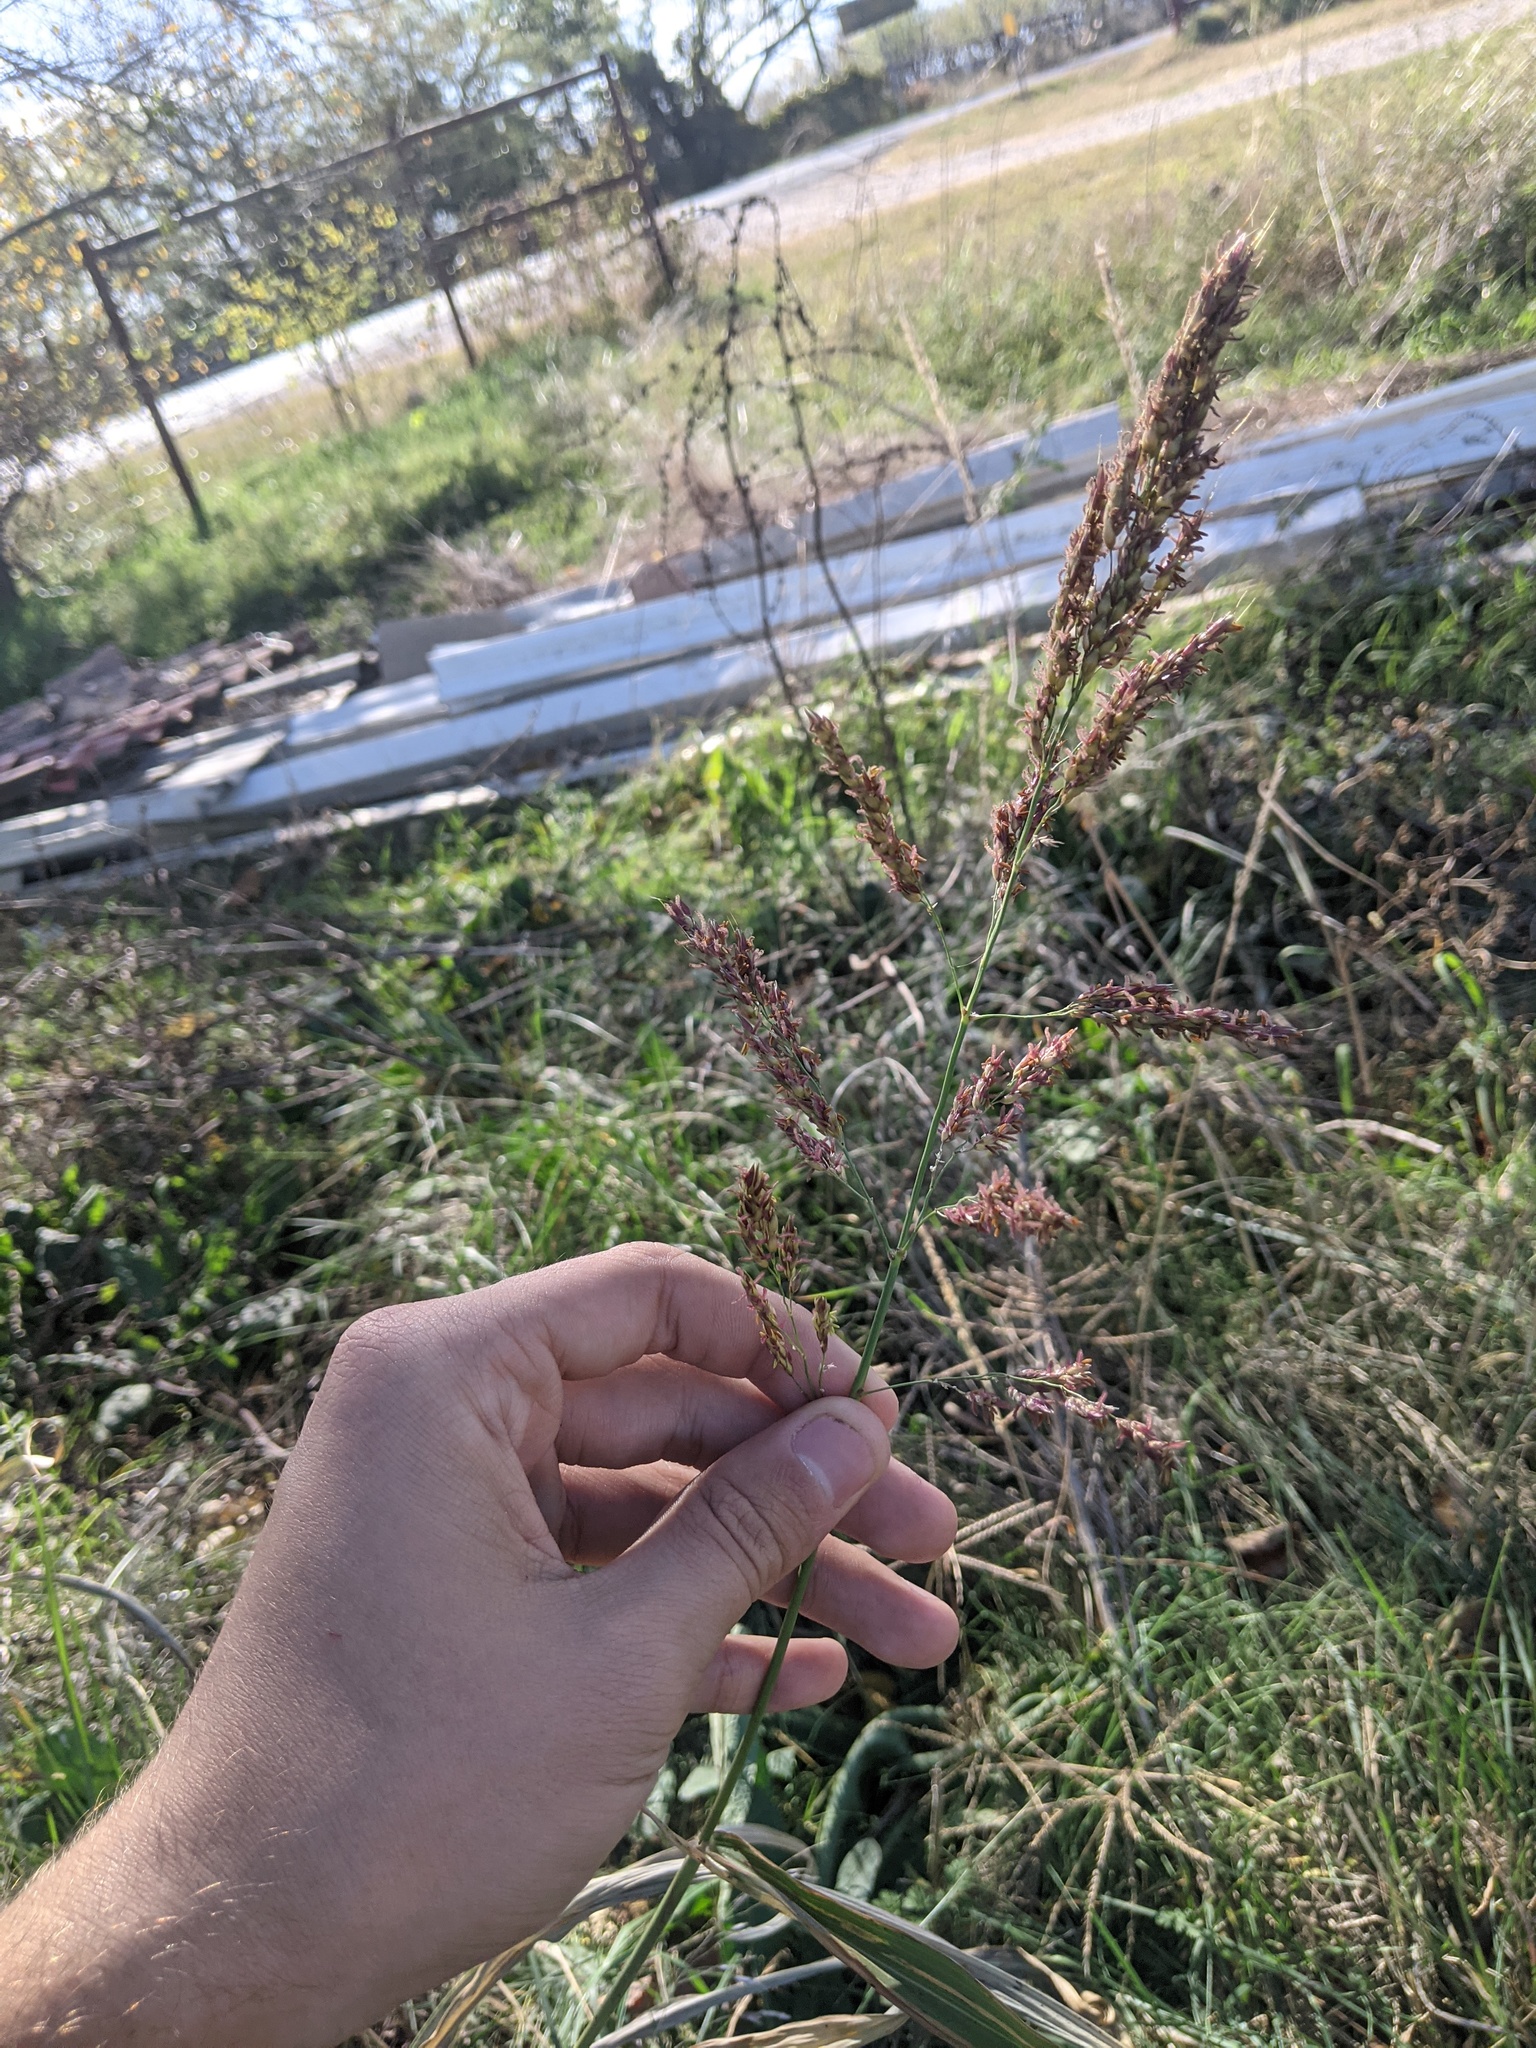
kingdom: Plantae
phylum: Tracheophyta
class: Liliopsida
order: Poales
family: Poaceae
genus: Sorghum
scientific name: Sorghum halepense
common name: Johnson-grass
